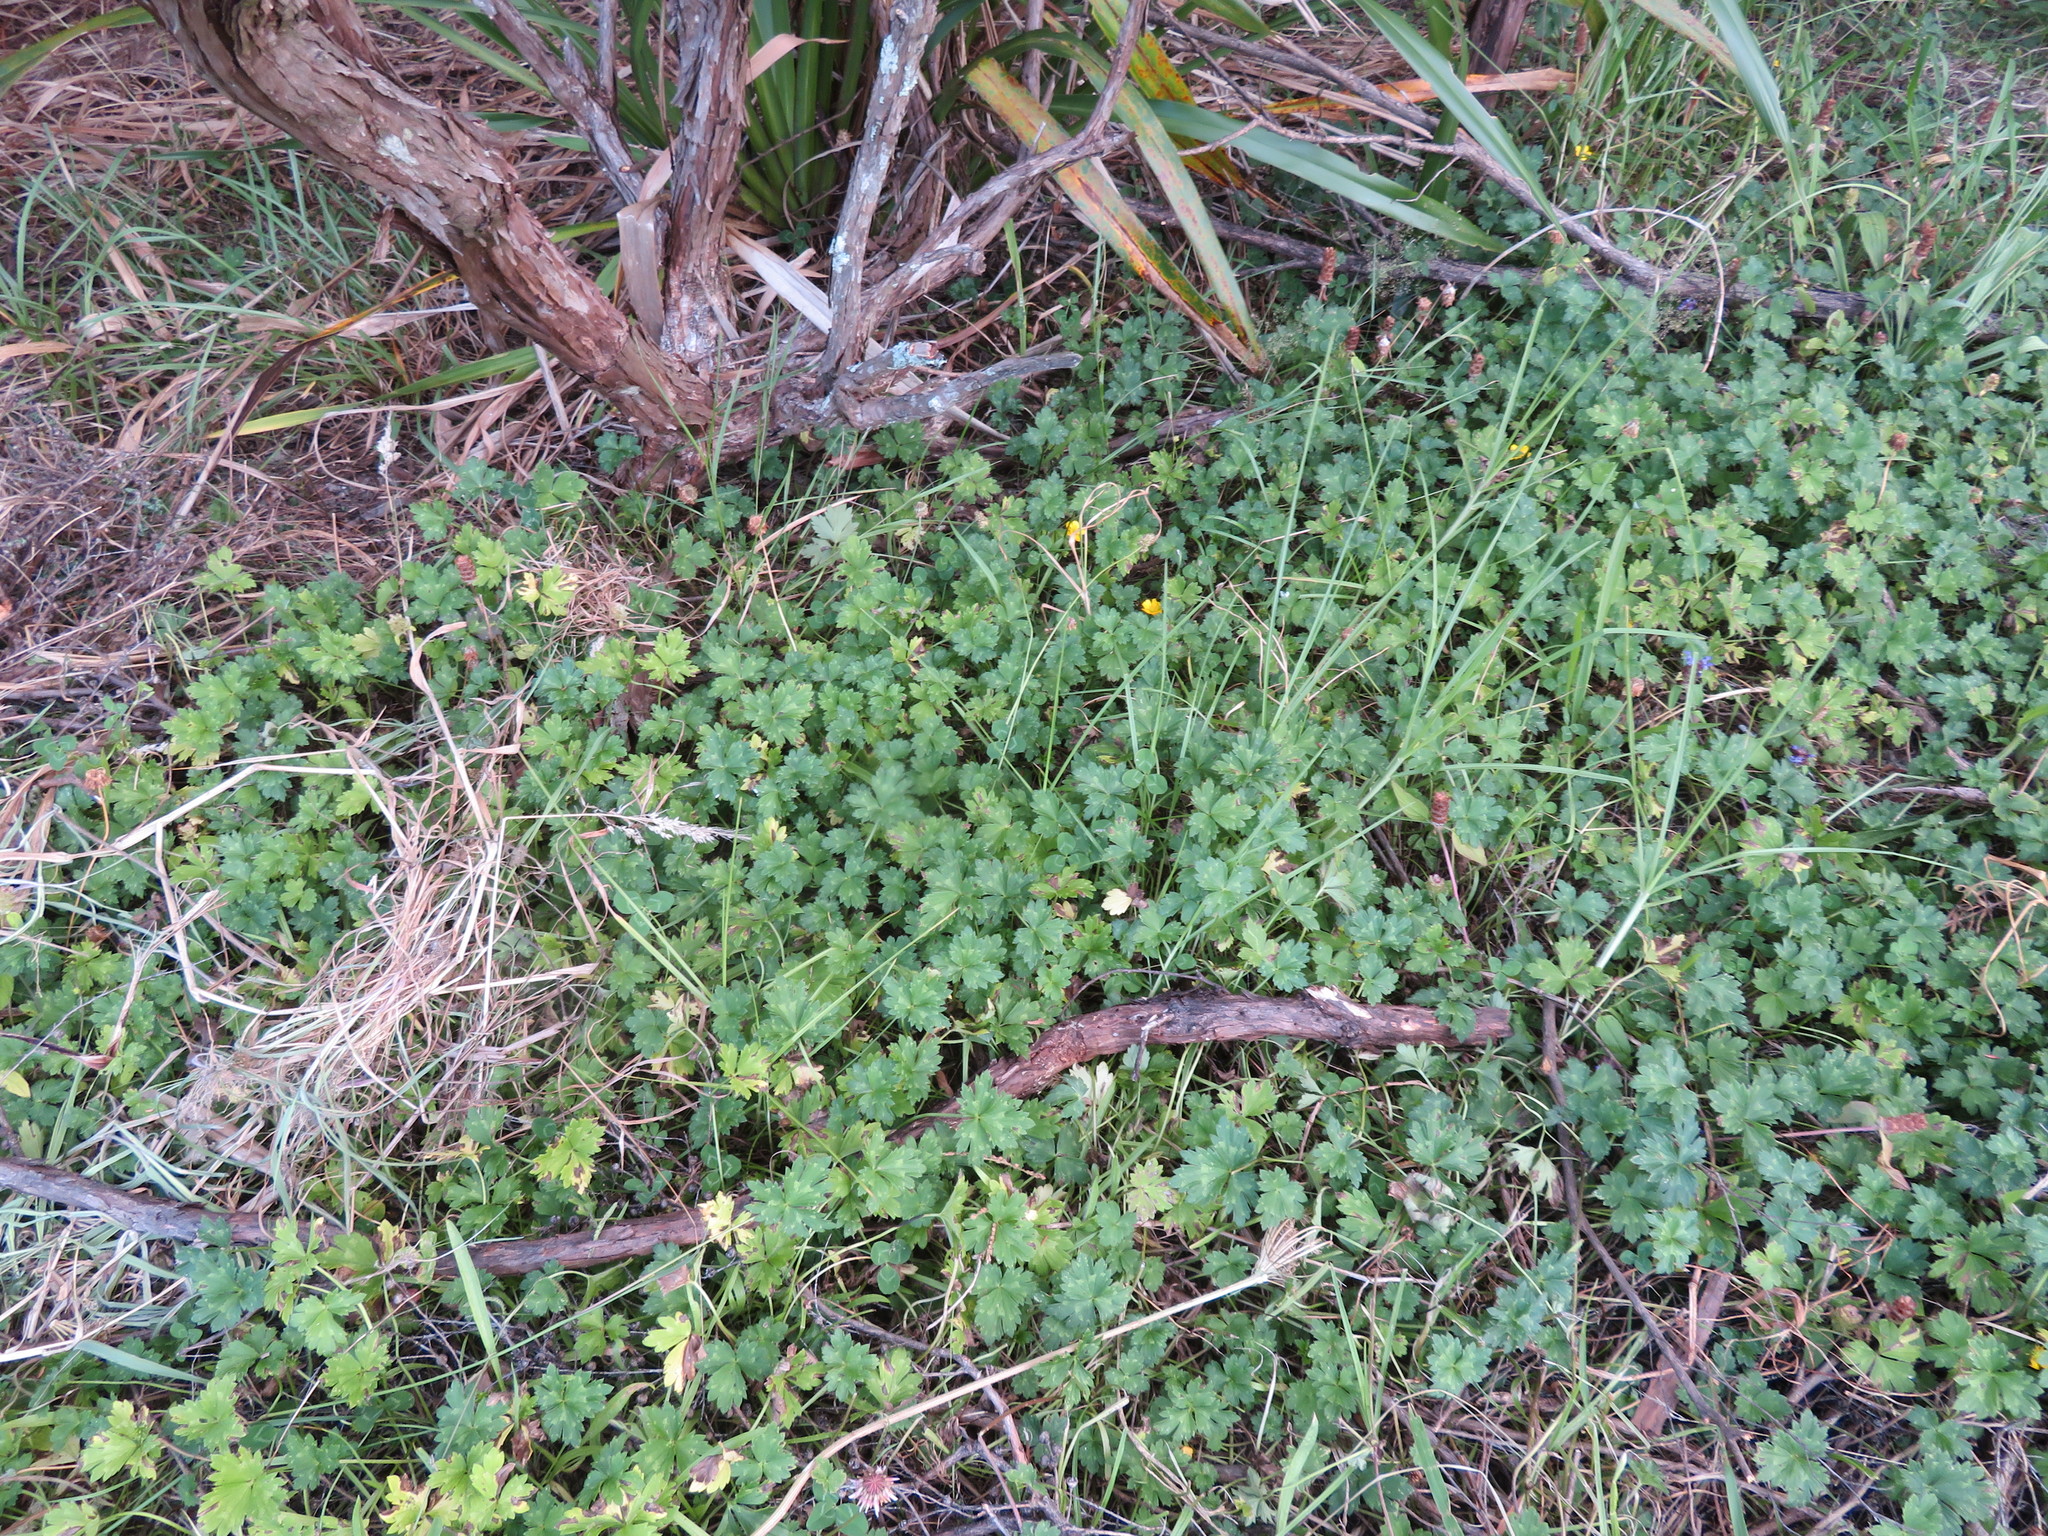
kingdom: Plantae
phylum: Tracheophyta
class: Magnoliopsida
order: Ranunculales
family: Ranunculaceae
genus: Ranunculus
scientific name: Ranunculus repens
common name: Creeping buttercup
